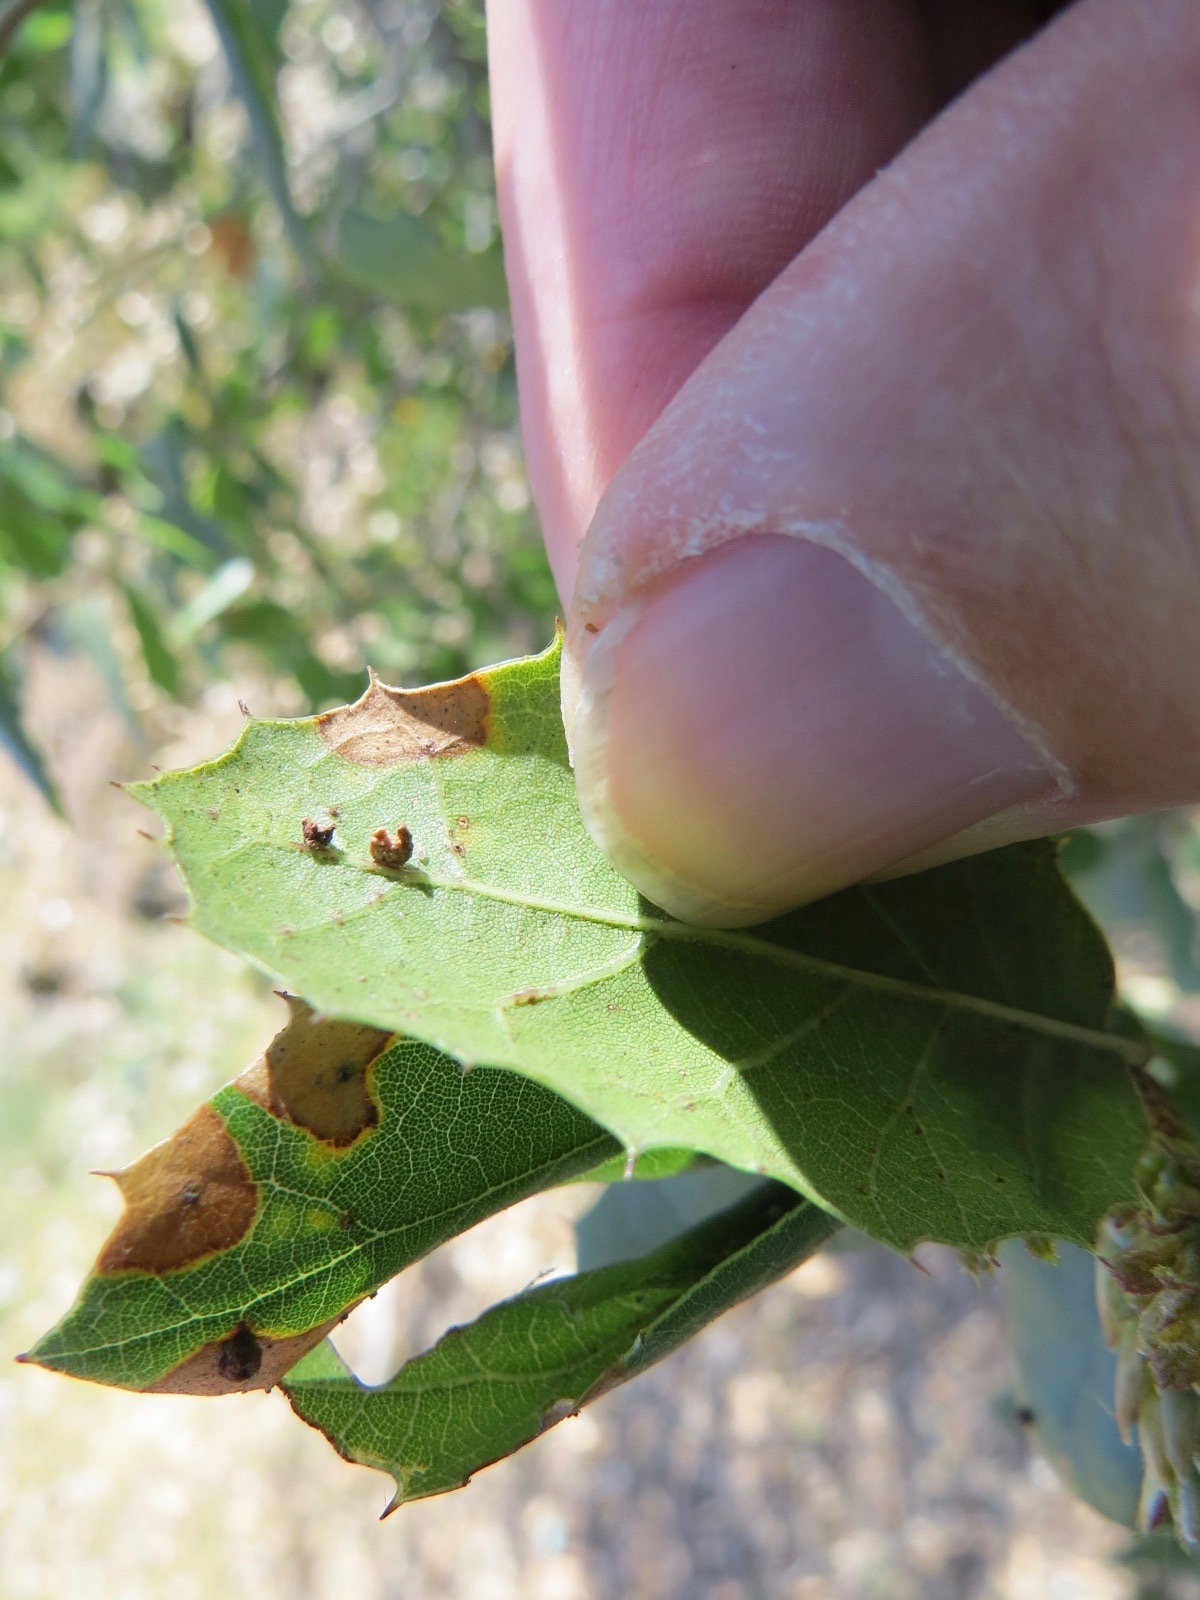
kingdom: Animalia
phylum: Arthropoda
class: Insecta
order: Hymenoptera
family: Cynipidae
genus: Dryocosmus
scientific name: Dryocosmus
